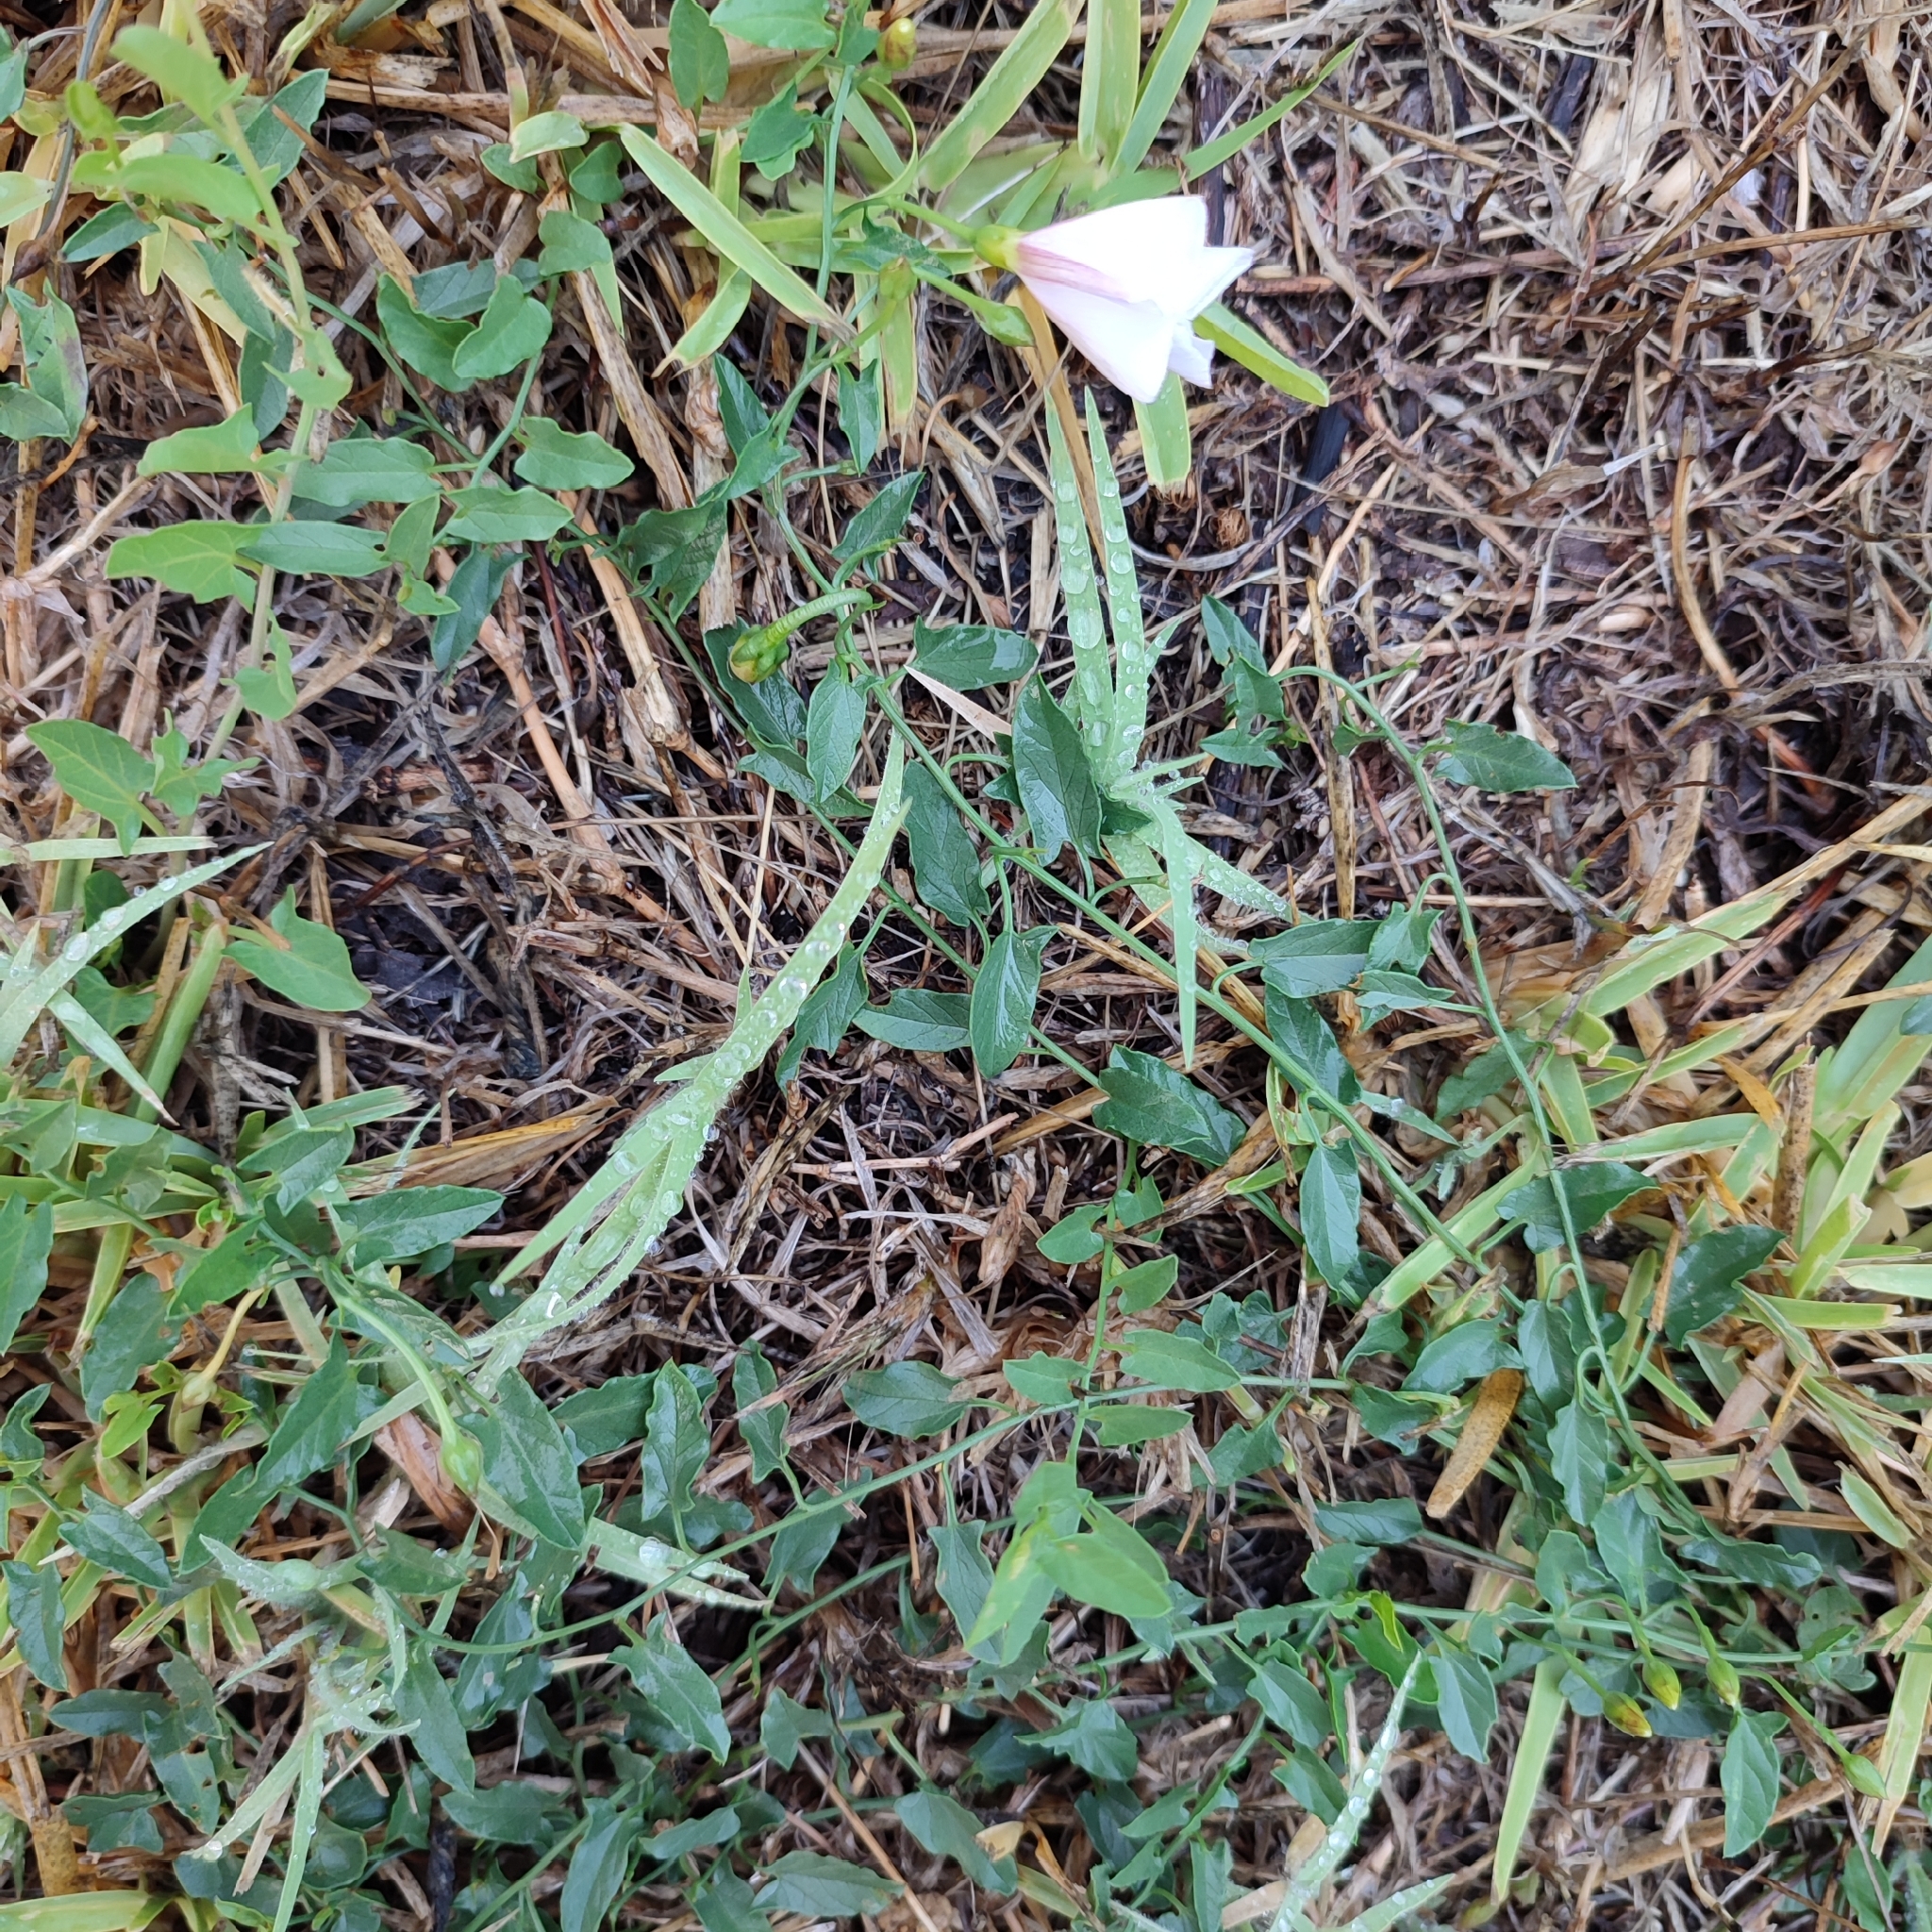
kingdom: Plantae
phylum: Tracheophyta
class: Magnoliopsida
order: Solanales
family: Convolvulaceae
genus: Convolvulus
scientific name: Convolvulus arvensis
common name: Field bindweed
